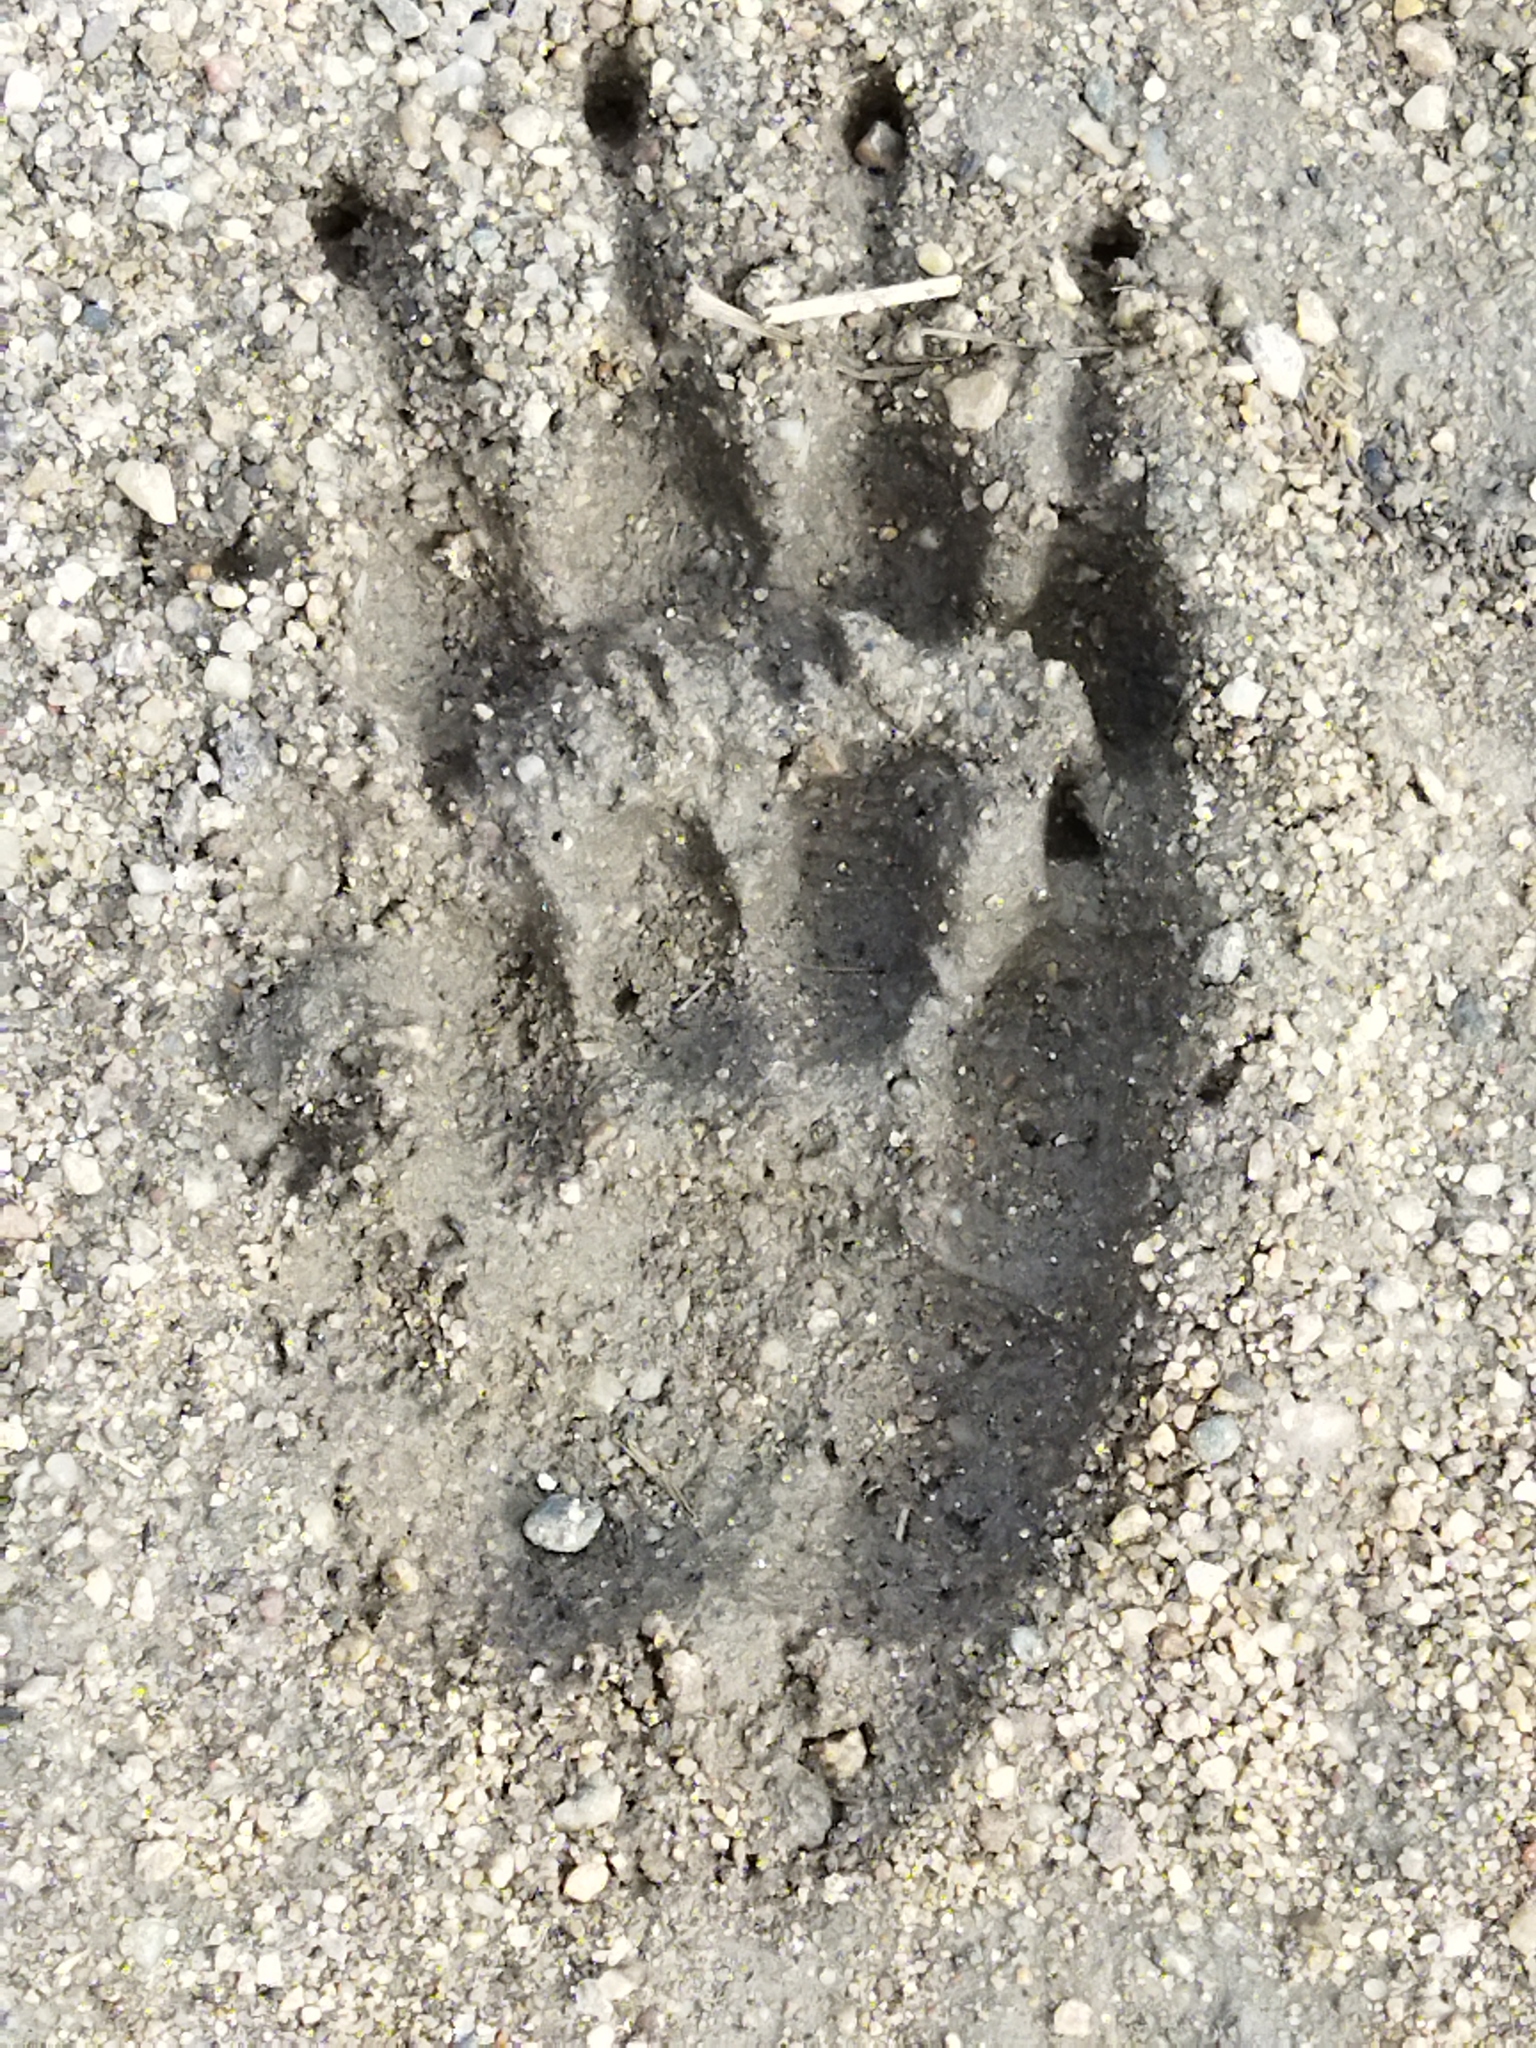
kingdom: Animalia
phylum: Chordata
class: Mammalia
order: Carnivora
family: Mustelidae
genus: Meles
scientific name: Meles meles
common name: Eurasian badger
